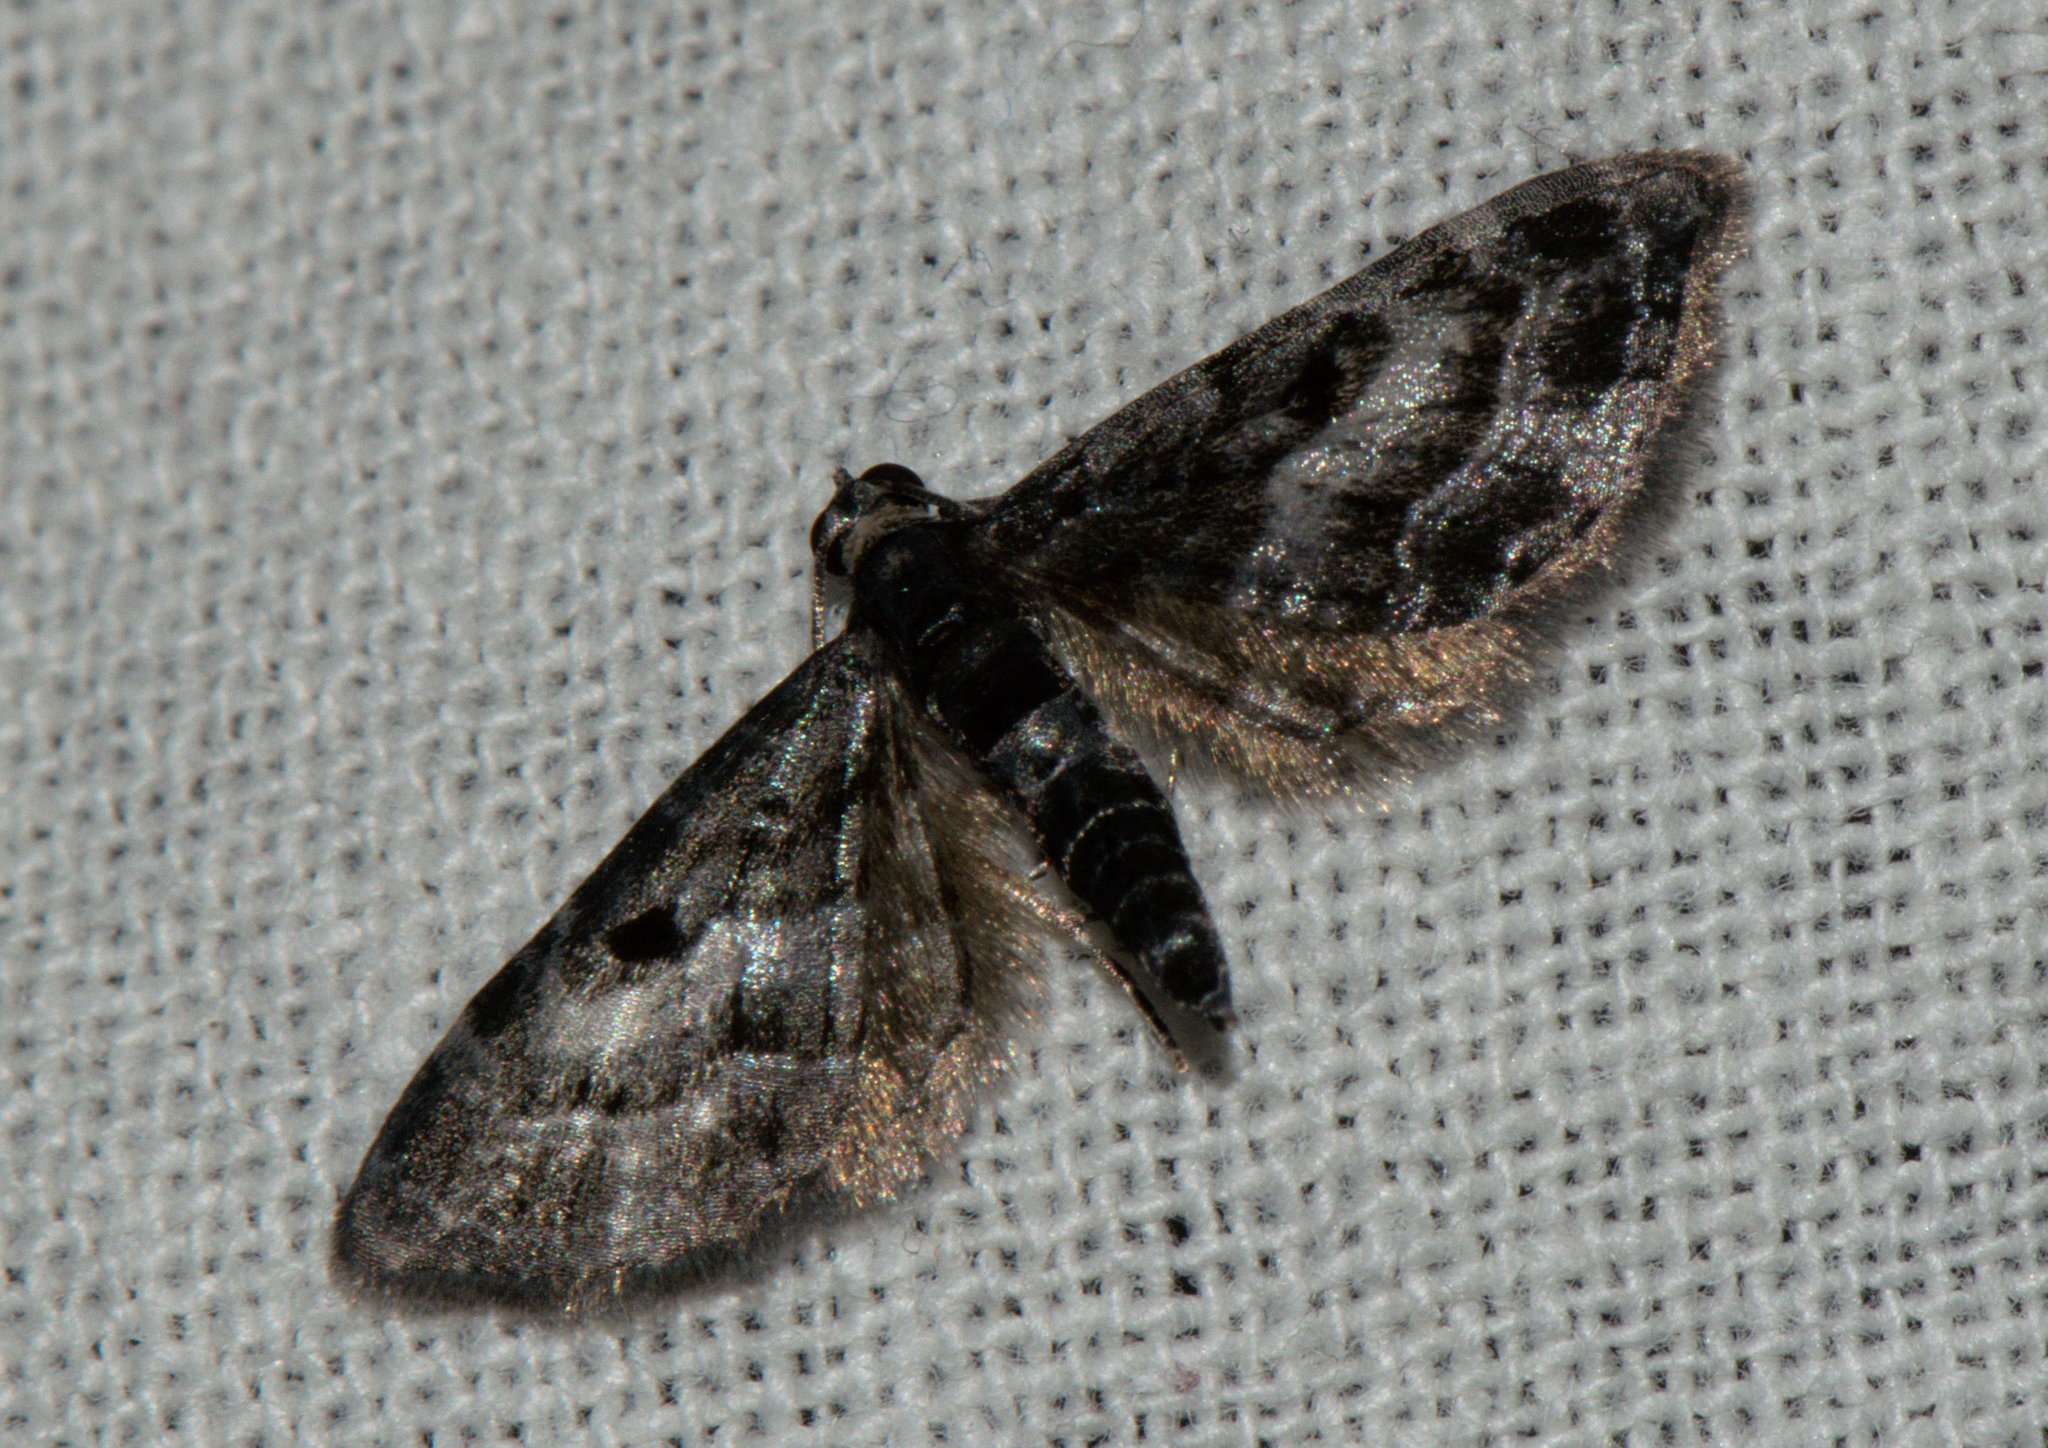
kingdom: Animalia
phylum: Arthropoda
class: Insecta
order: Lepidoptera
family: Geometridae
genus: Eupithecia
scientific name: Eupithecia atrisignis
